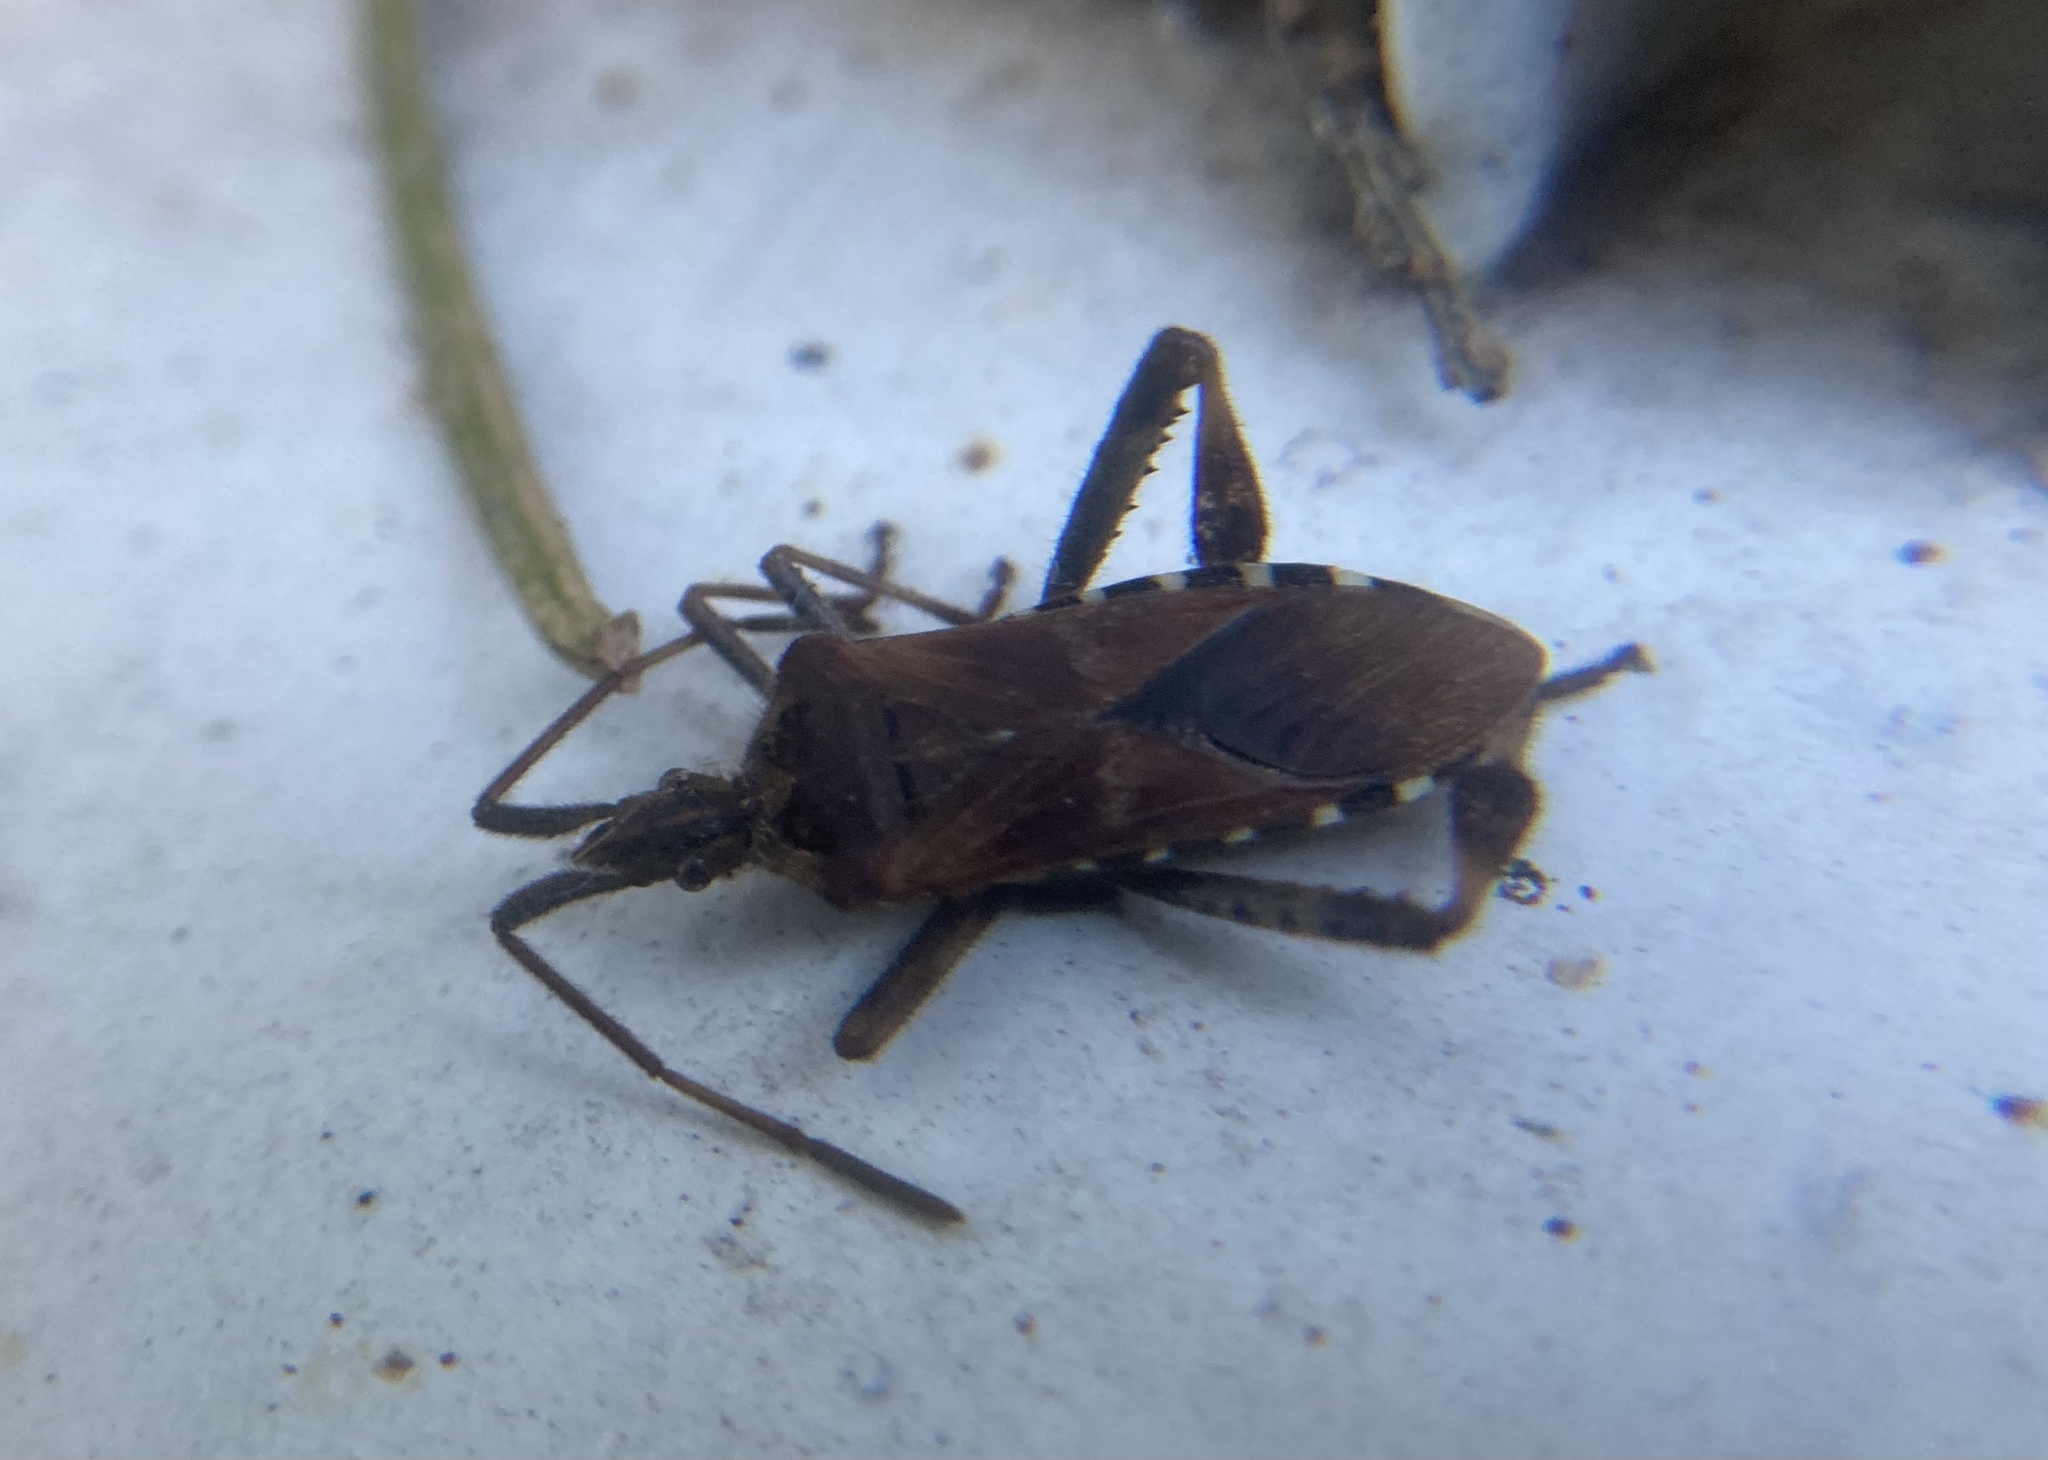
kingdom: Animalia
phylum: Arthropoda
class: Insecta
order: Hemiptera
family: Coreidae
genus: Leptoglossus
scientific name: Leptoglossus occidentalis
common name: Western conifer-seed bug
